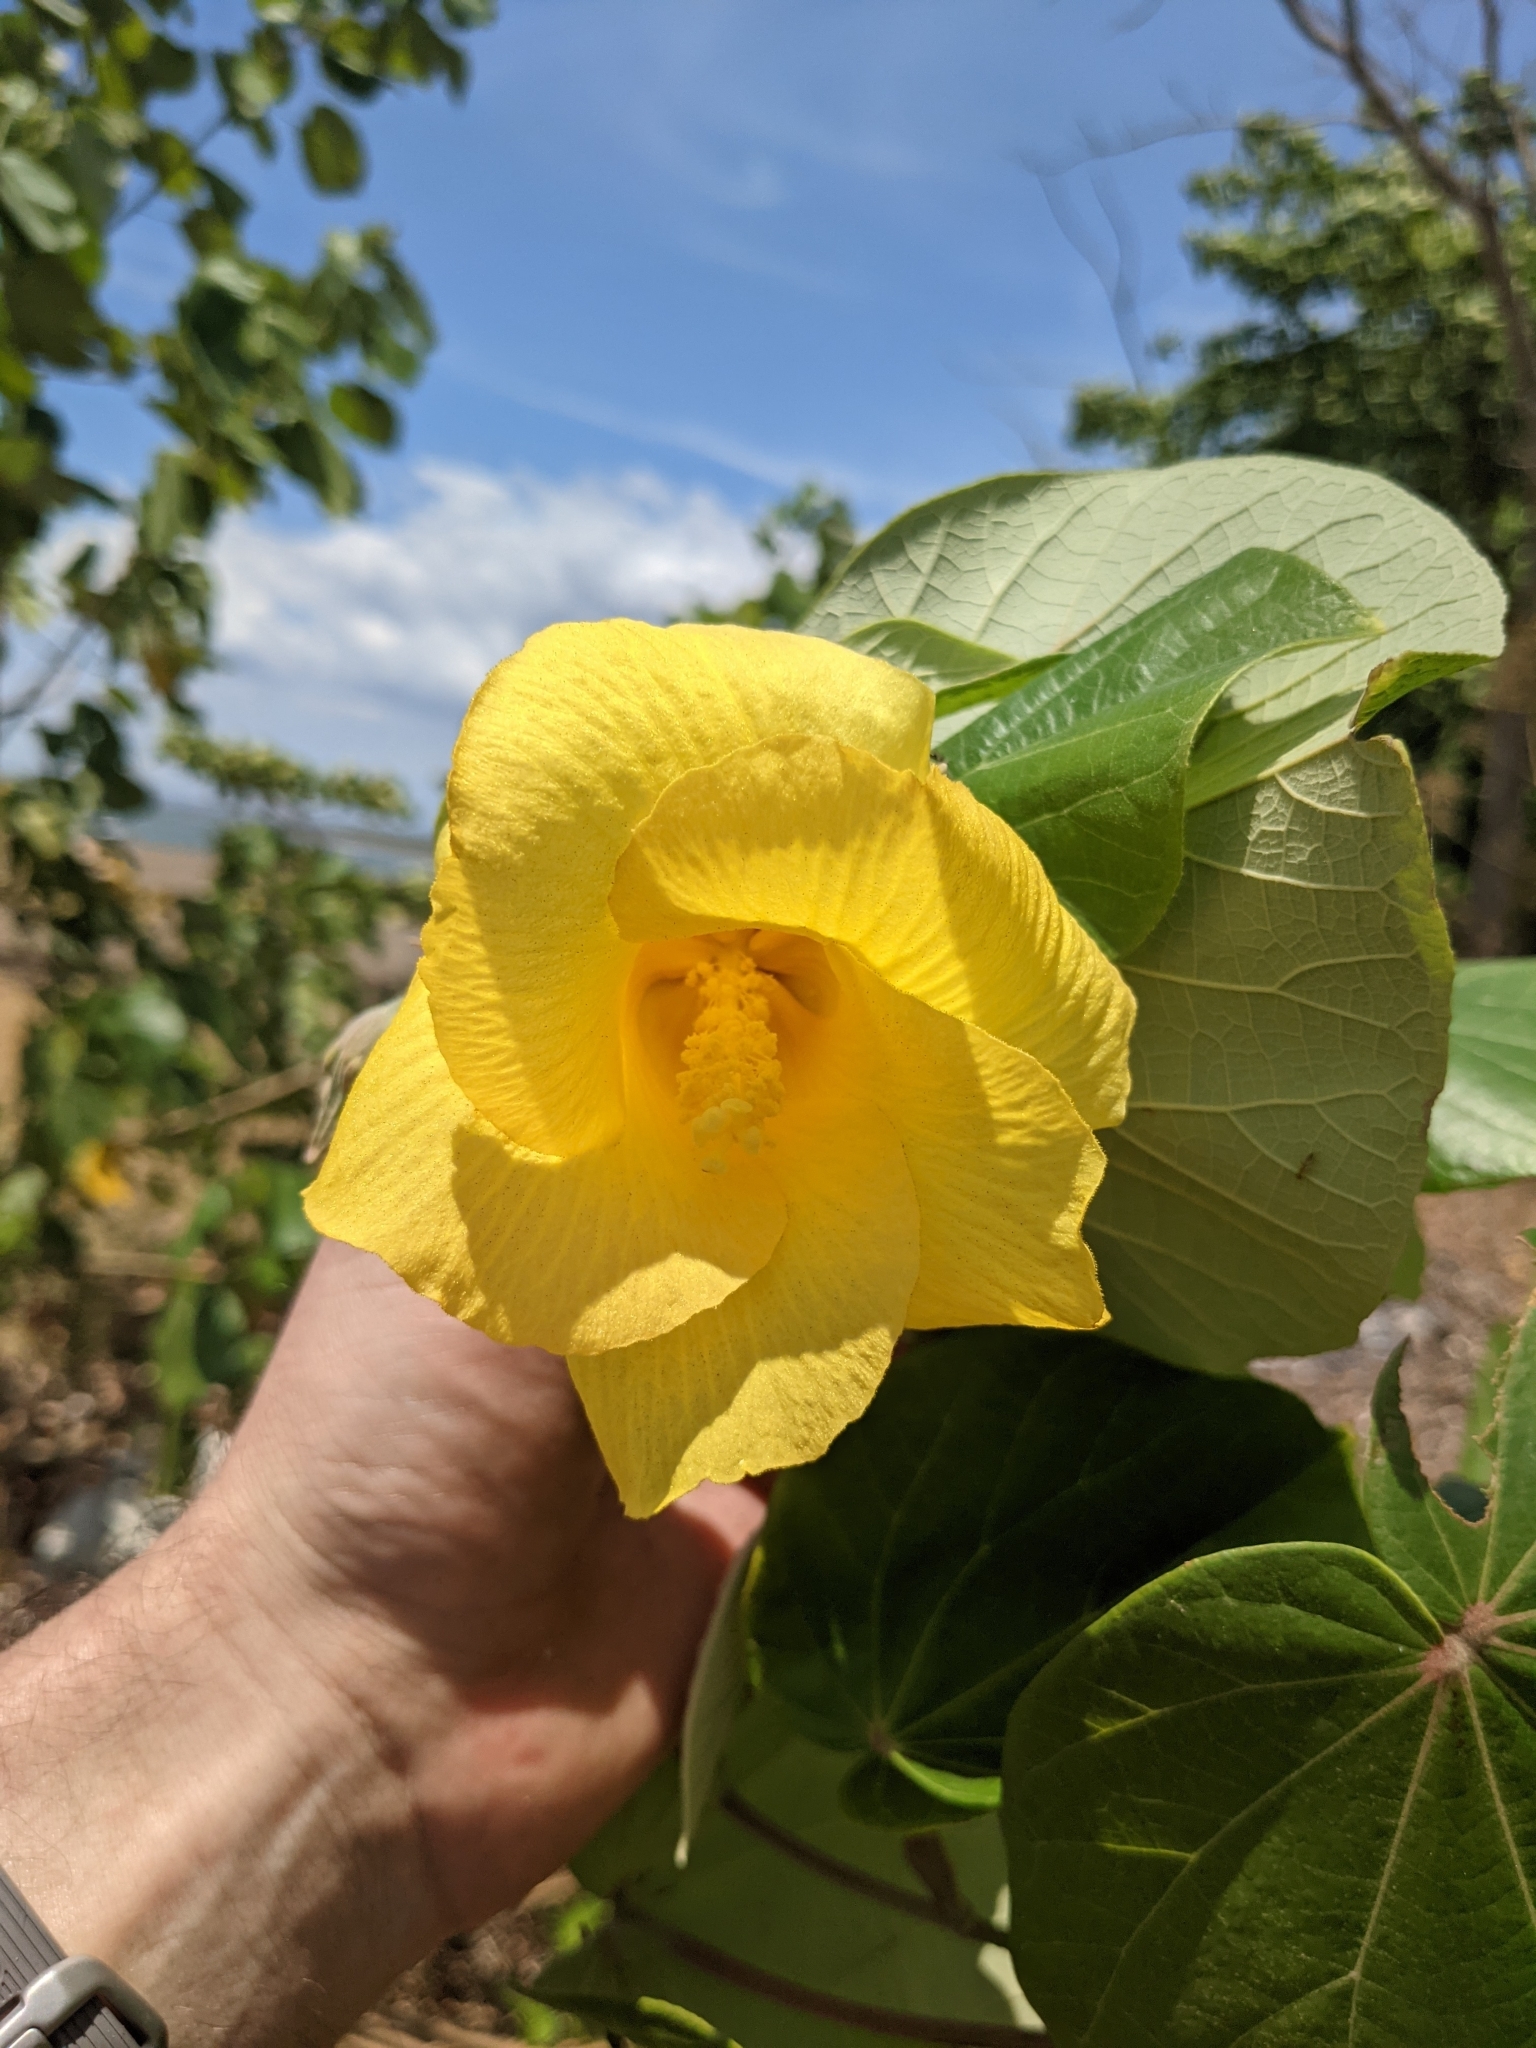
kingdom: Plantae
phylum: Tracheophyta
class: Magnoliopsida
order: Malvales
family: Malvaceae
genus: Talipariti
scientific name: Talipariti pernambucense
